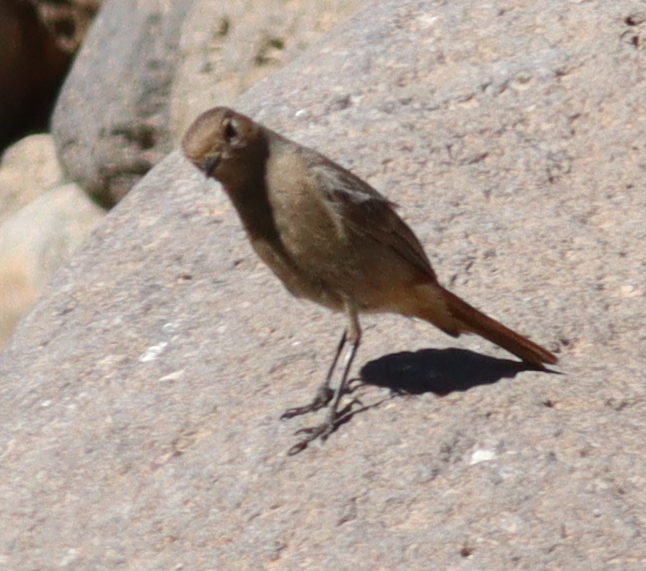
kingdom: Animalia
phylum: Chordata
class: Aves
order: Passeriformes
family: Muscicapidae
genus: Phoenicurus
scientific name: Phoenicurus ochruros
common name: Black redstart
